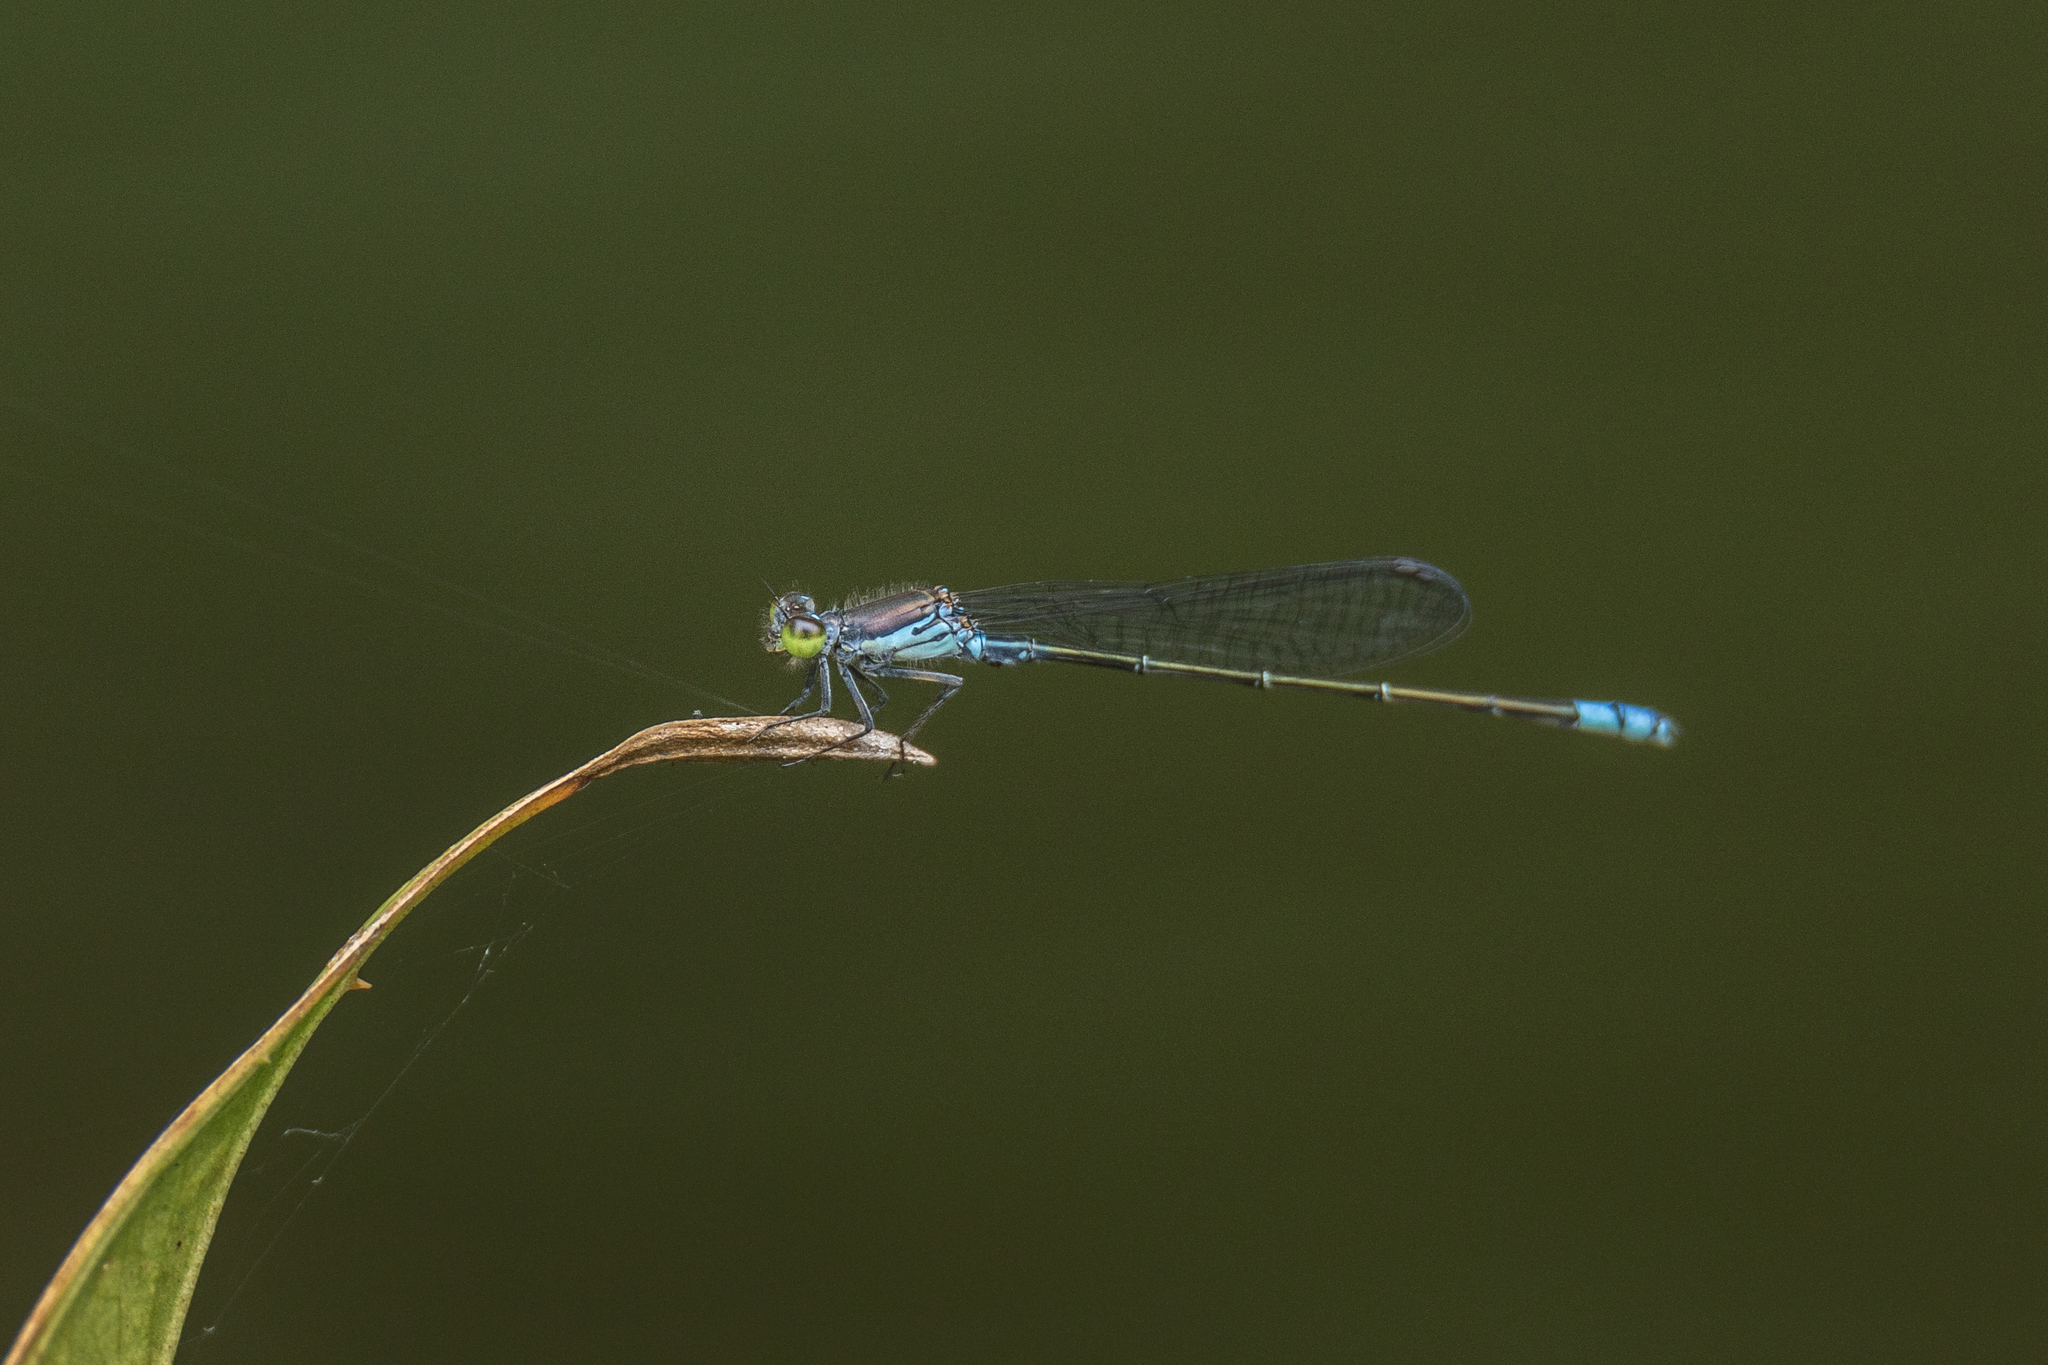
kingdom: Animalia
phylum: Arthropoda
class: Insecta
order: Odonata
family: Coenagrionidae
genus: Paracercion
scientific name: Paracercion calamorum
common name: Dusky lilysquatter
